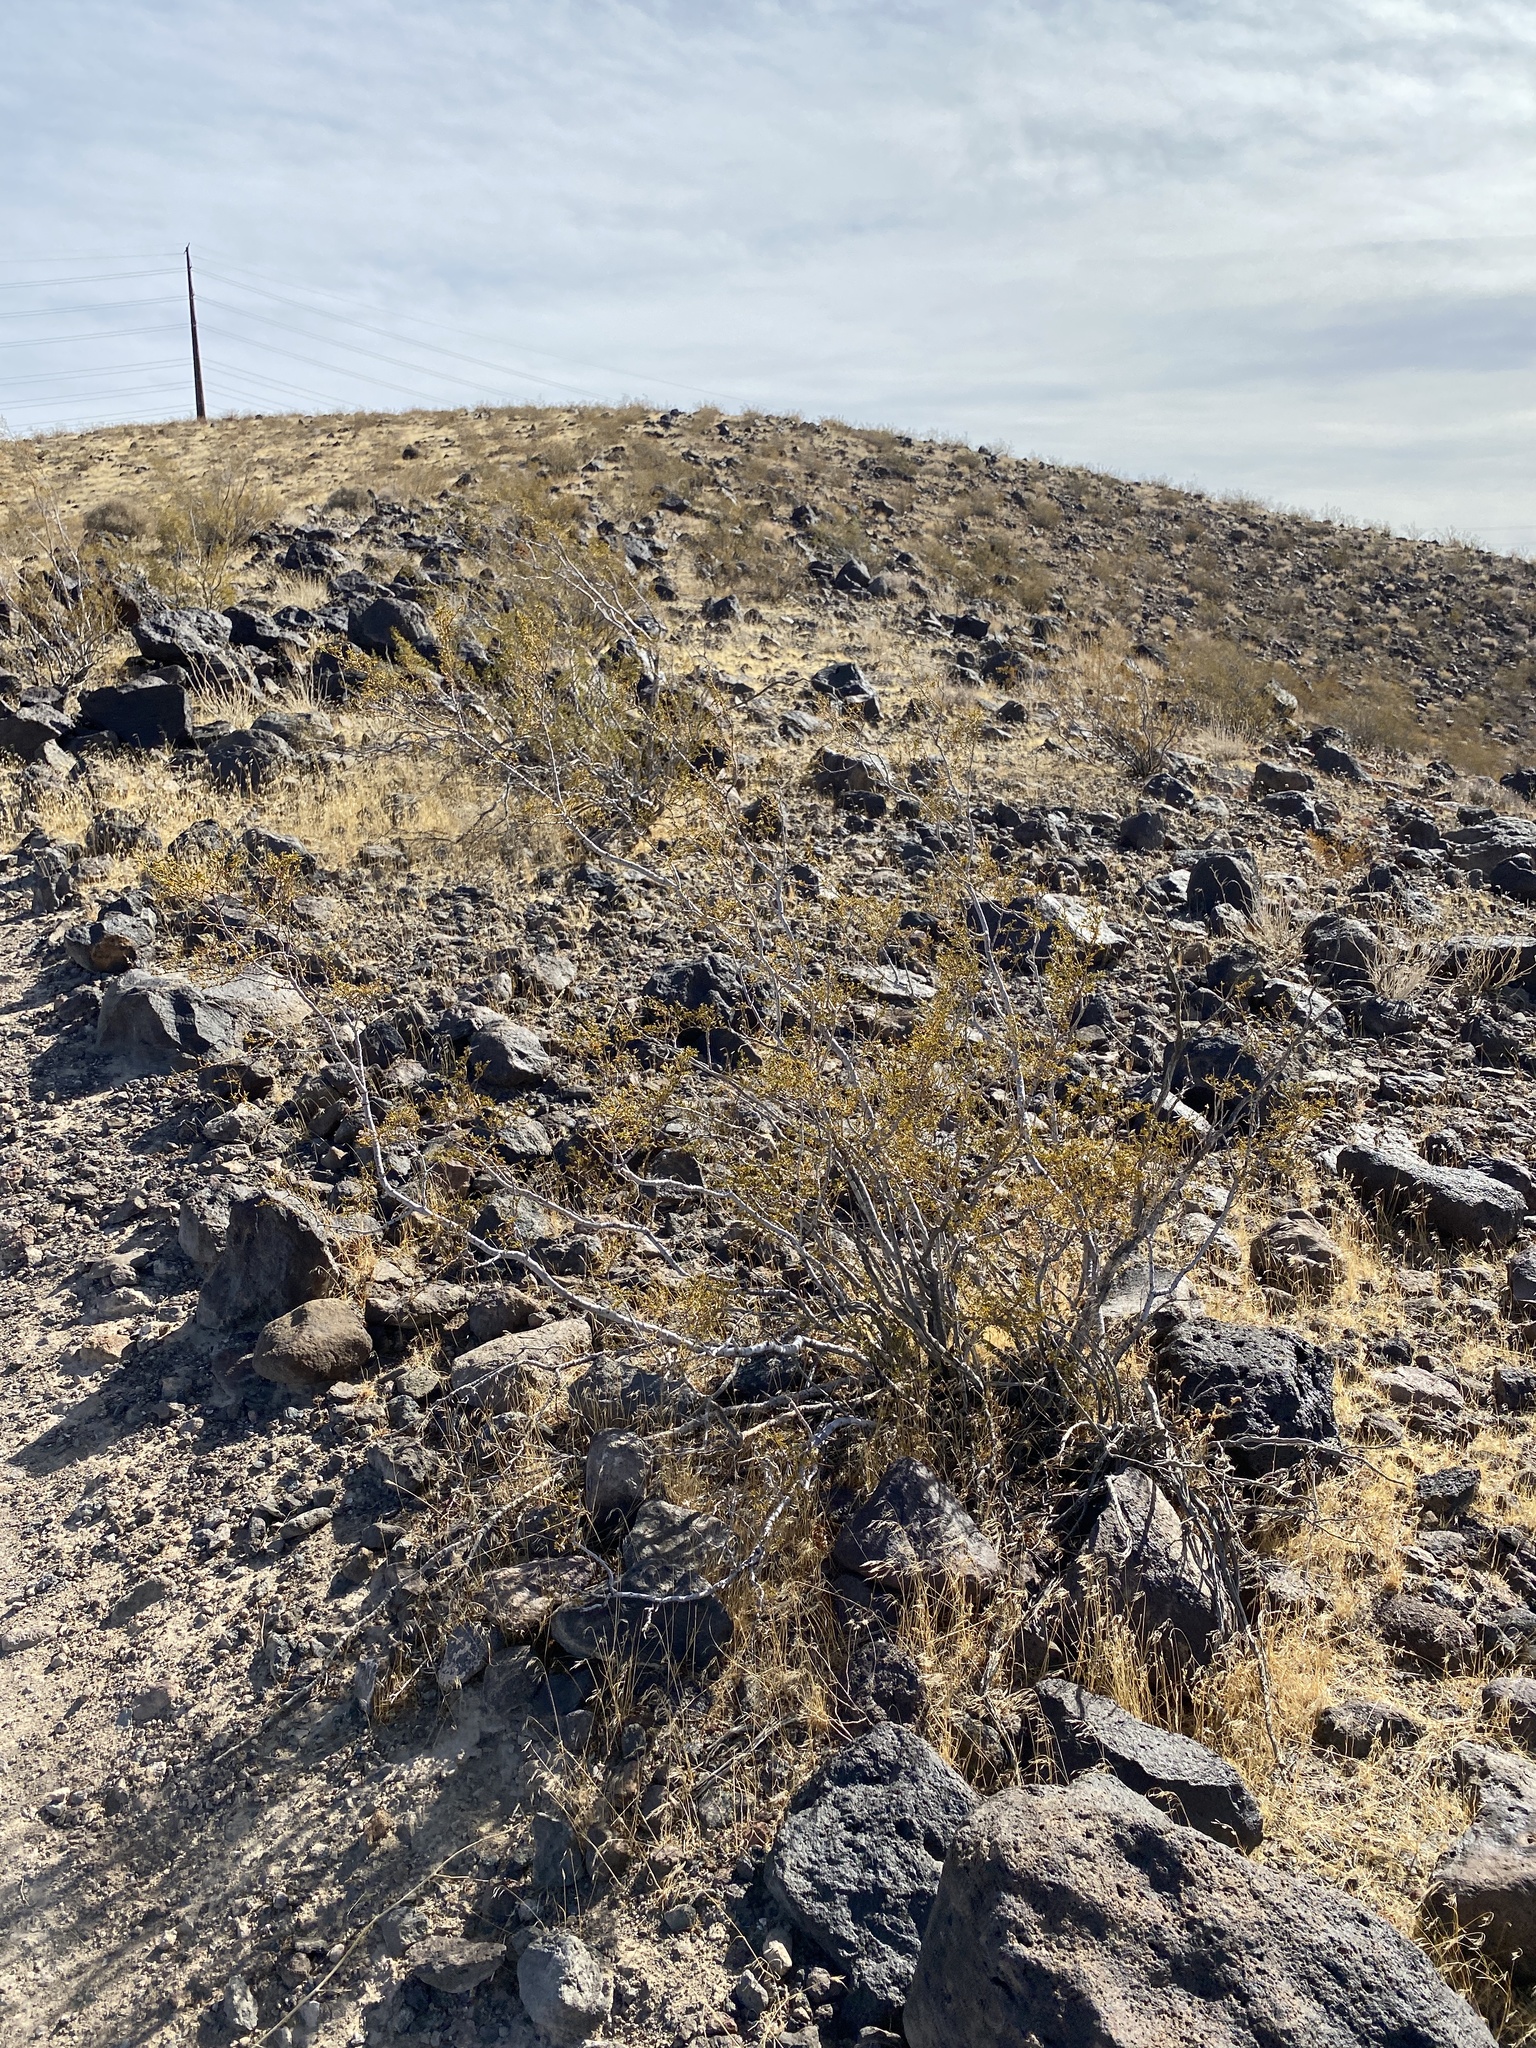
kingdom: Plantae
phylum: Tracheophyta
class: Magnoliopsida
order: Zygophyllales
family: Zygophyllaceae
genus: Larrea
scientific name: Larrea tridentata
